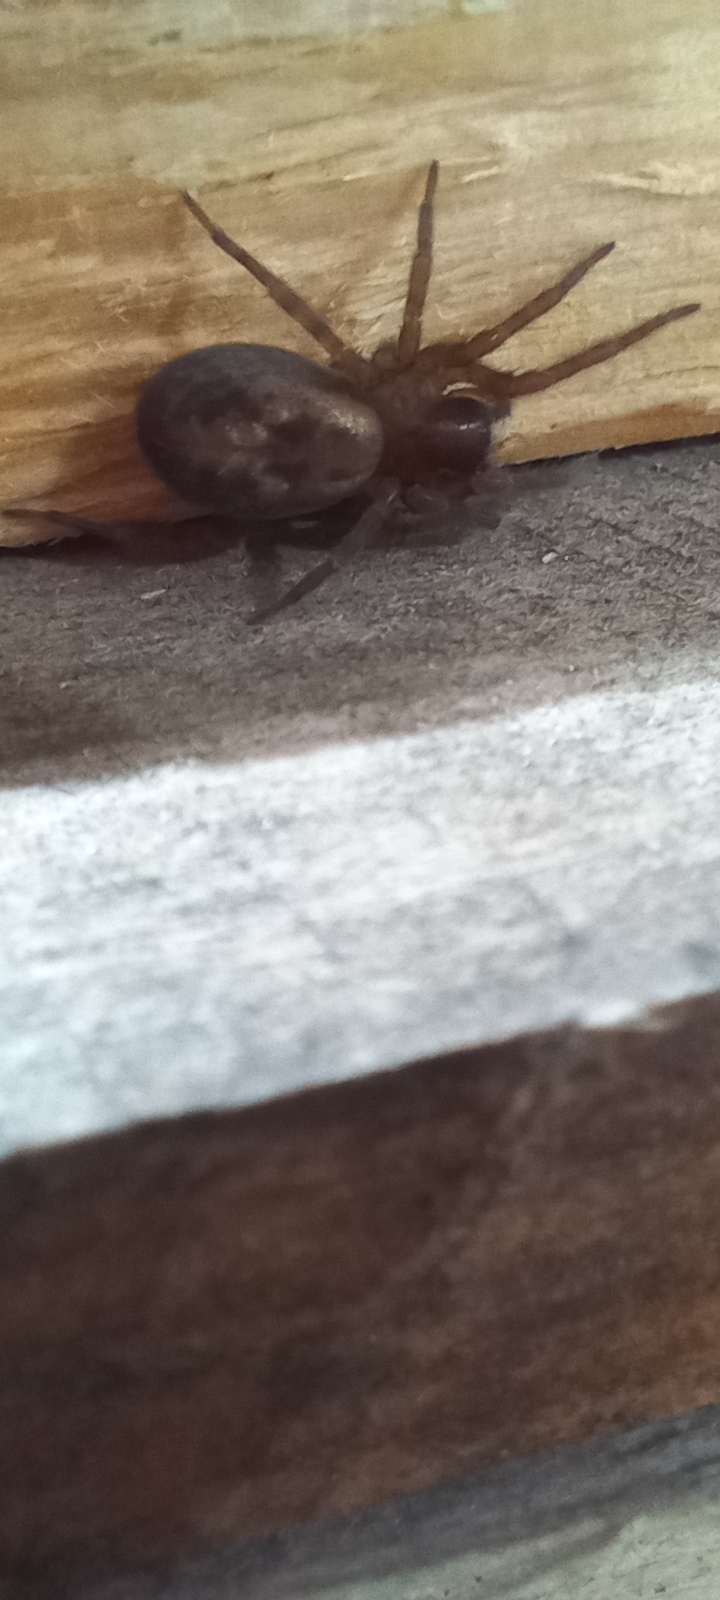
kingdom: Animalia
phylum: Arthropoda
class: Arachnida
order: Araneae
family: Amaurobiidae
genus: Amaurobius
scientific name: Amaurobius similis
